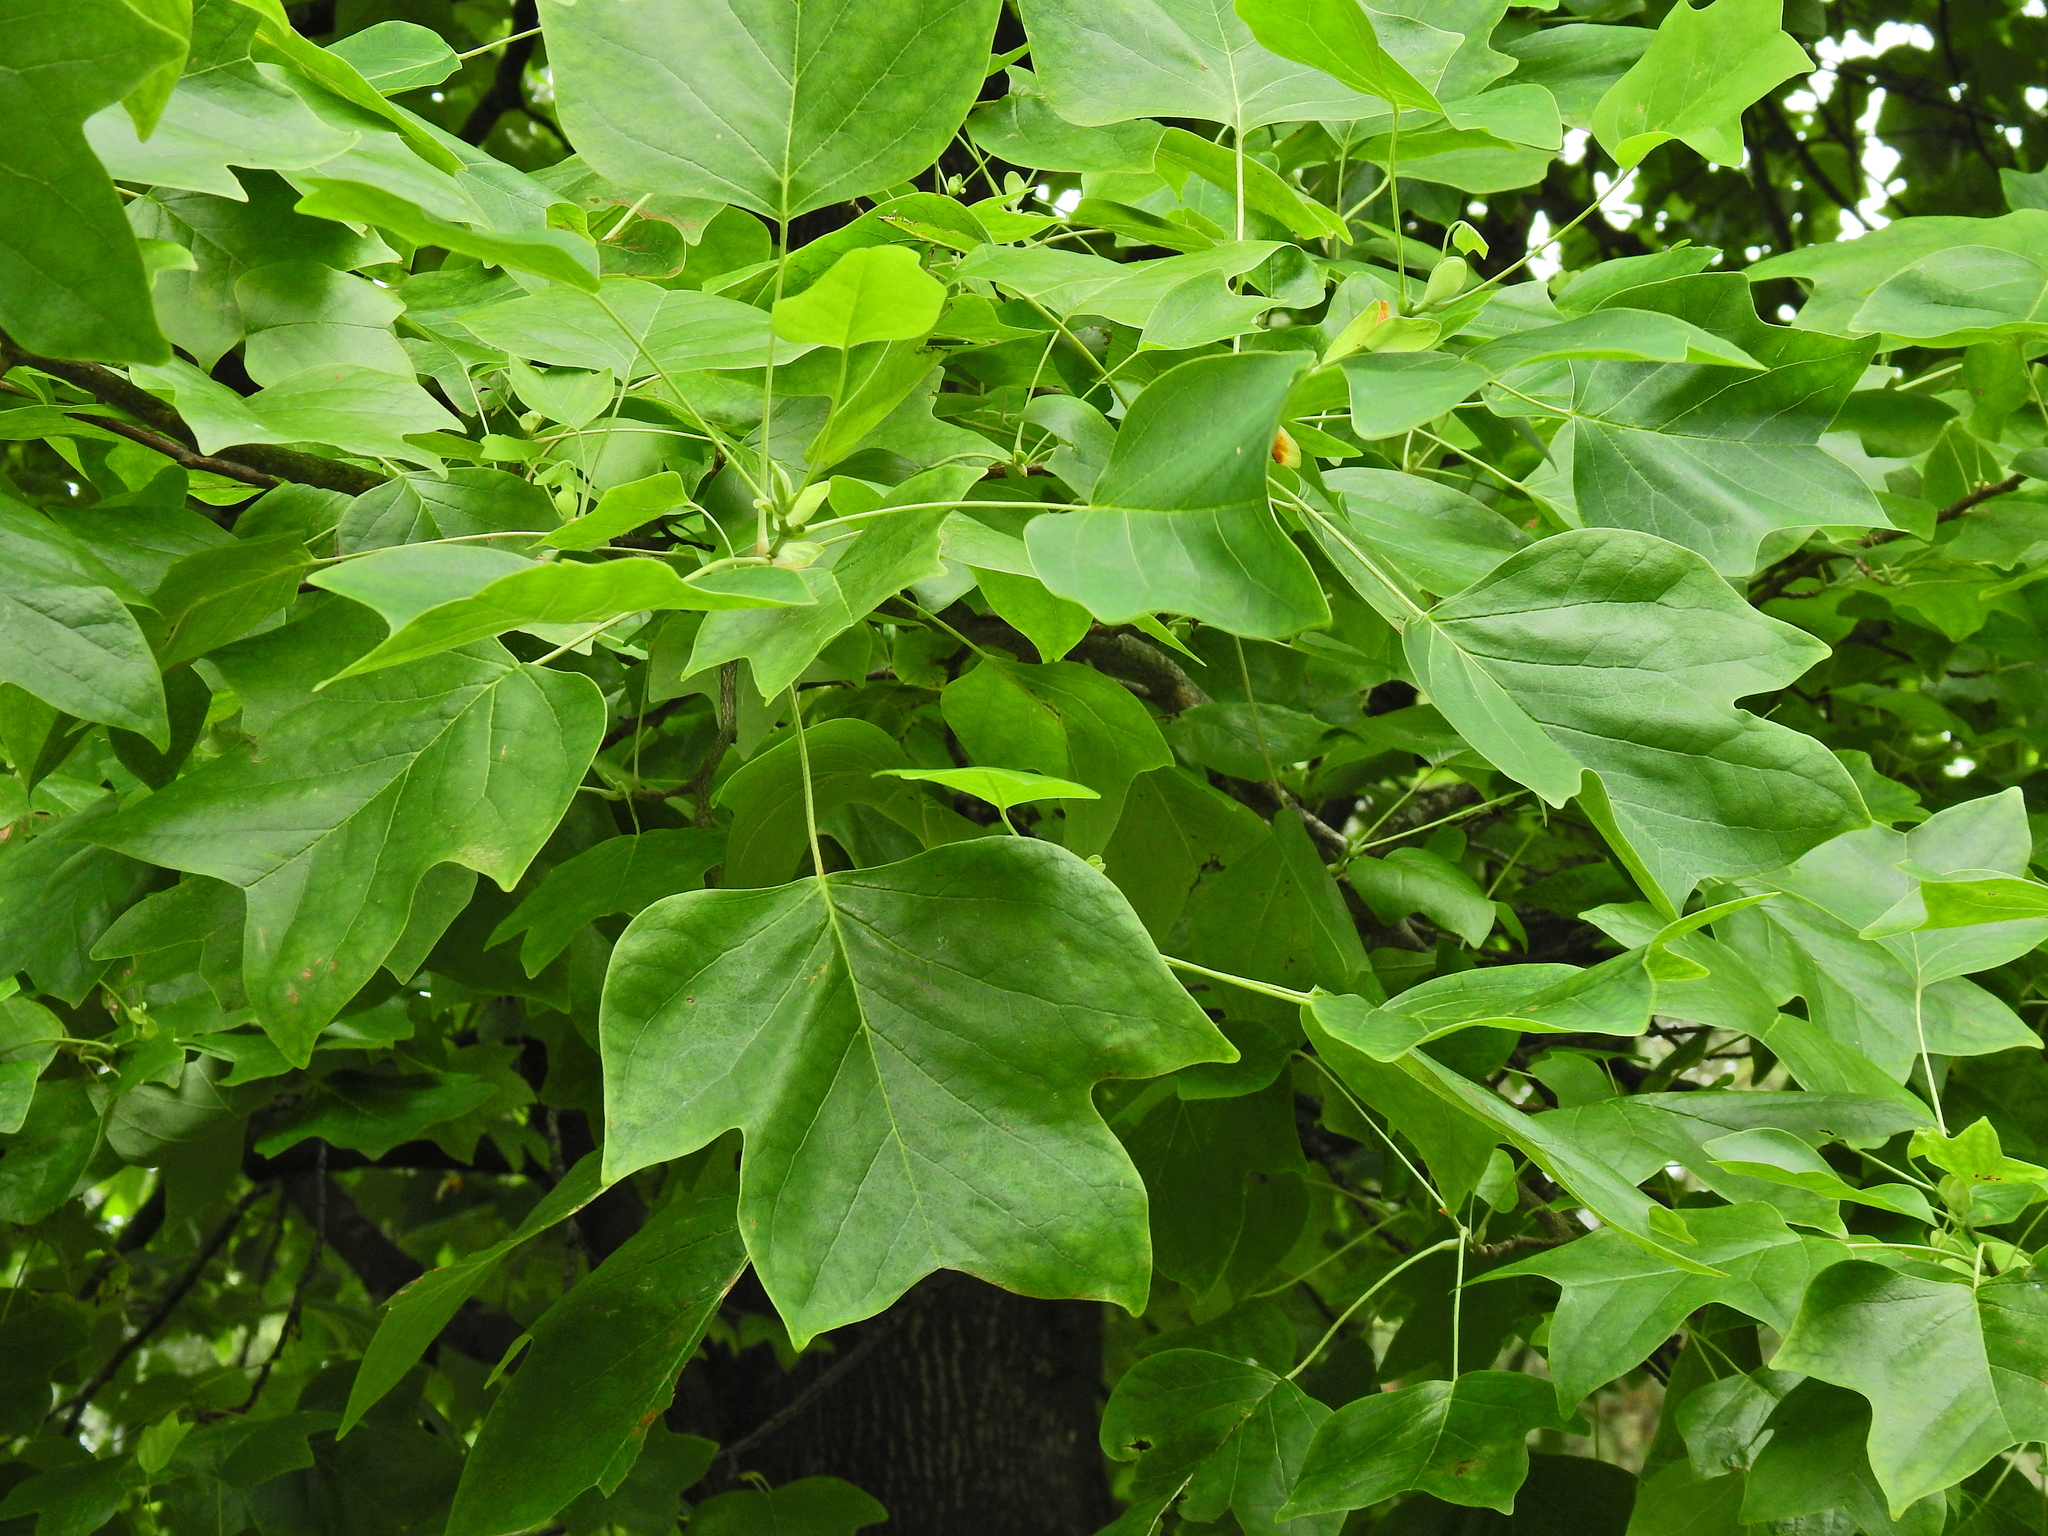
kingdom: Plantae
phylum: Tracheophyta
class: Magnoliopsida
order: Magnoliales
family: Magnoliaceae
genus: Liriodendron
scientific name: Liriodendron tulipifera
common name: Tulip tree
